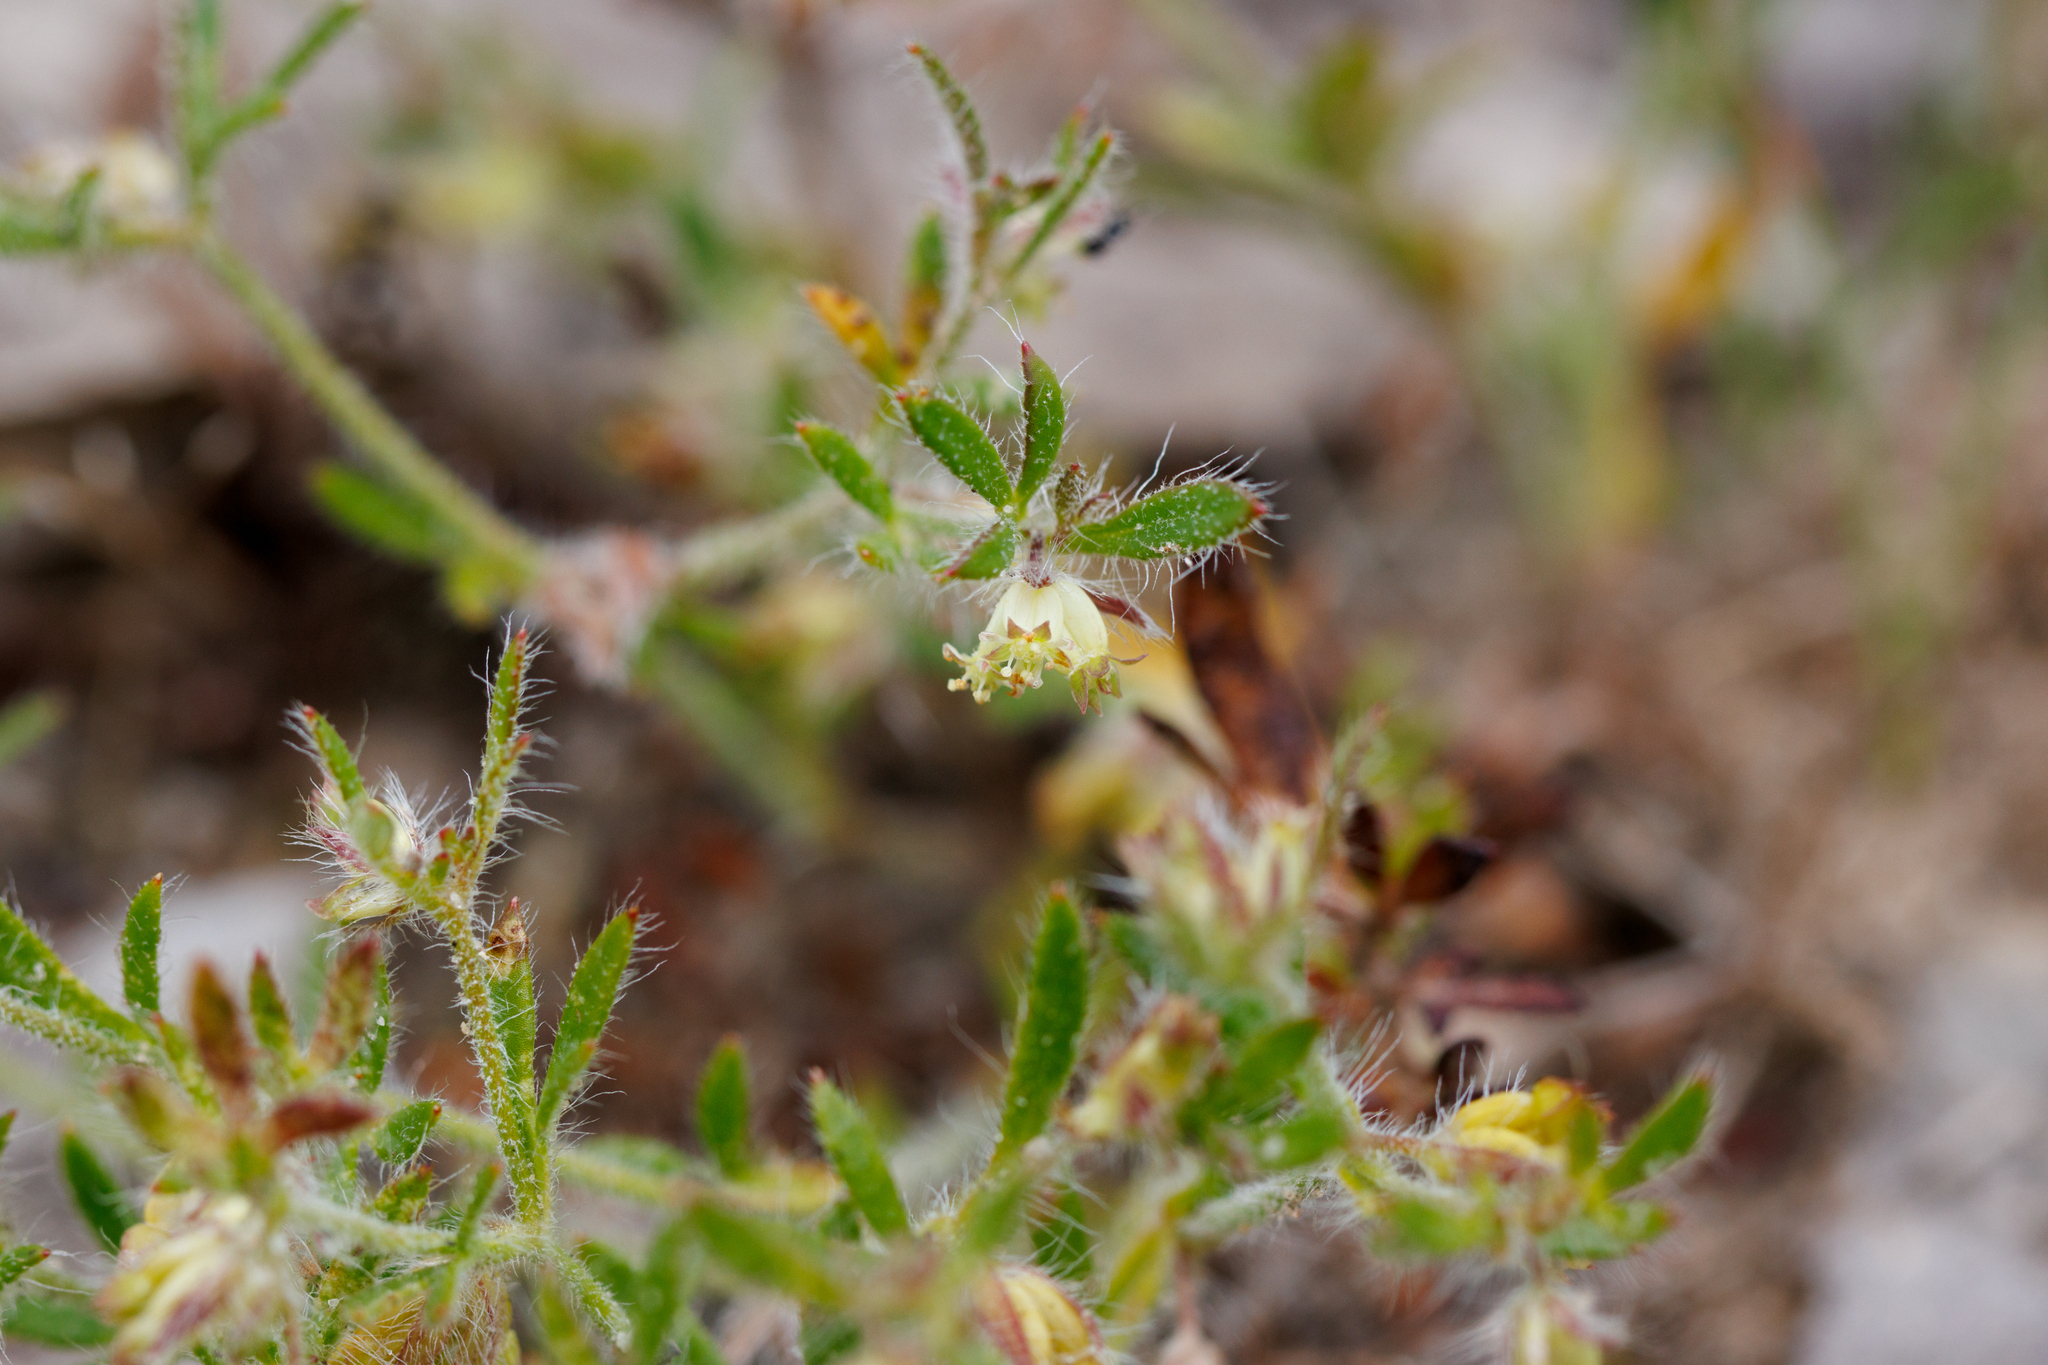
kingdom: Plantae
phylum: Tracheophyta
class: Magnoliopsida
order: Apiales
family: Apiaceae
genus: Xanthosia
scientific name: Xanthosia huegelii
